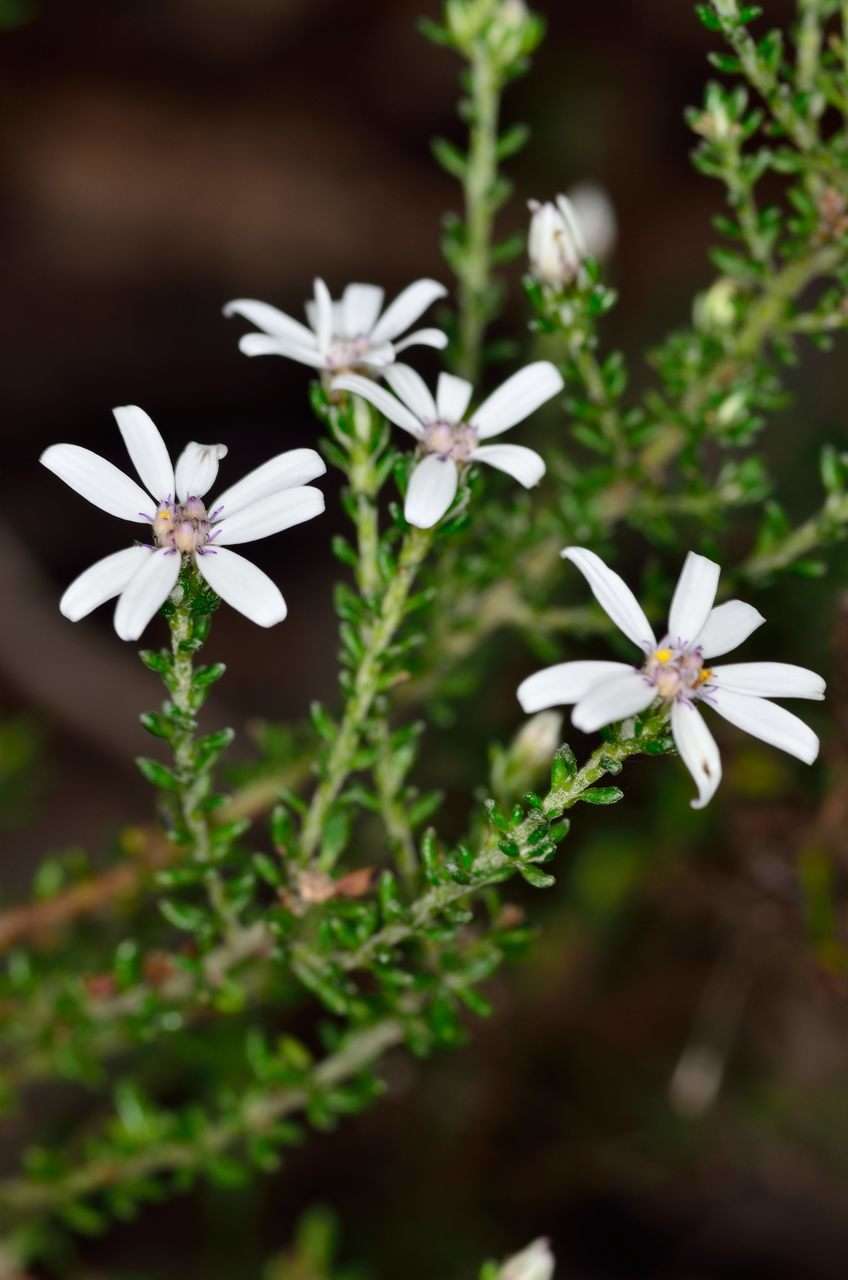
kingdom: Plantae
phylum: Tracheophyta
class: Magnoliopsida
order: Asterales
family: Asteraceae
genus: Olearia
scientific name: Olearia minor
